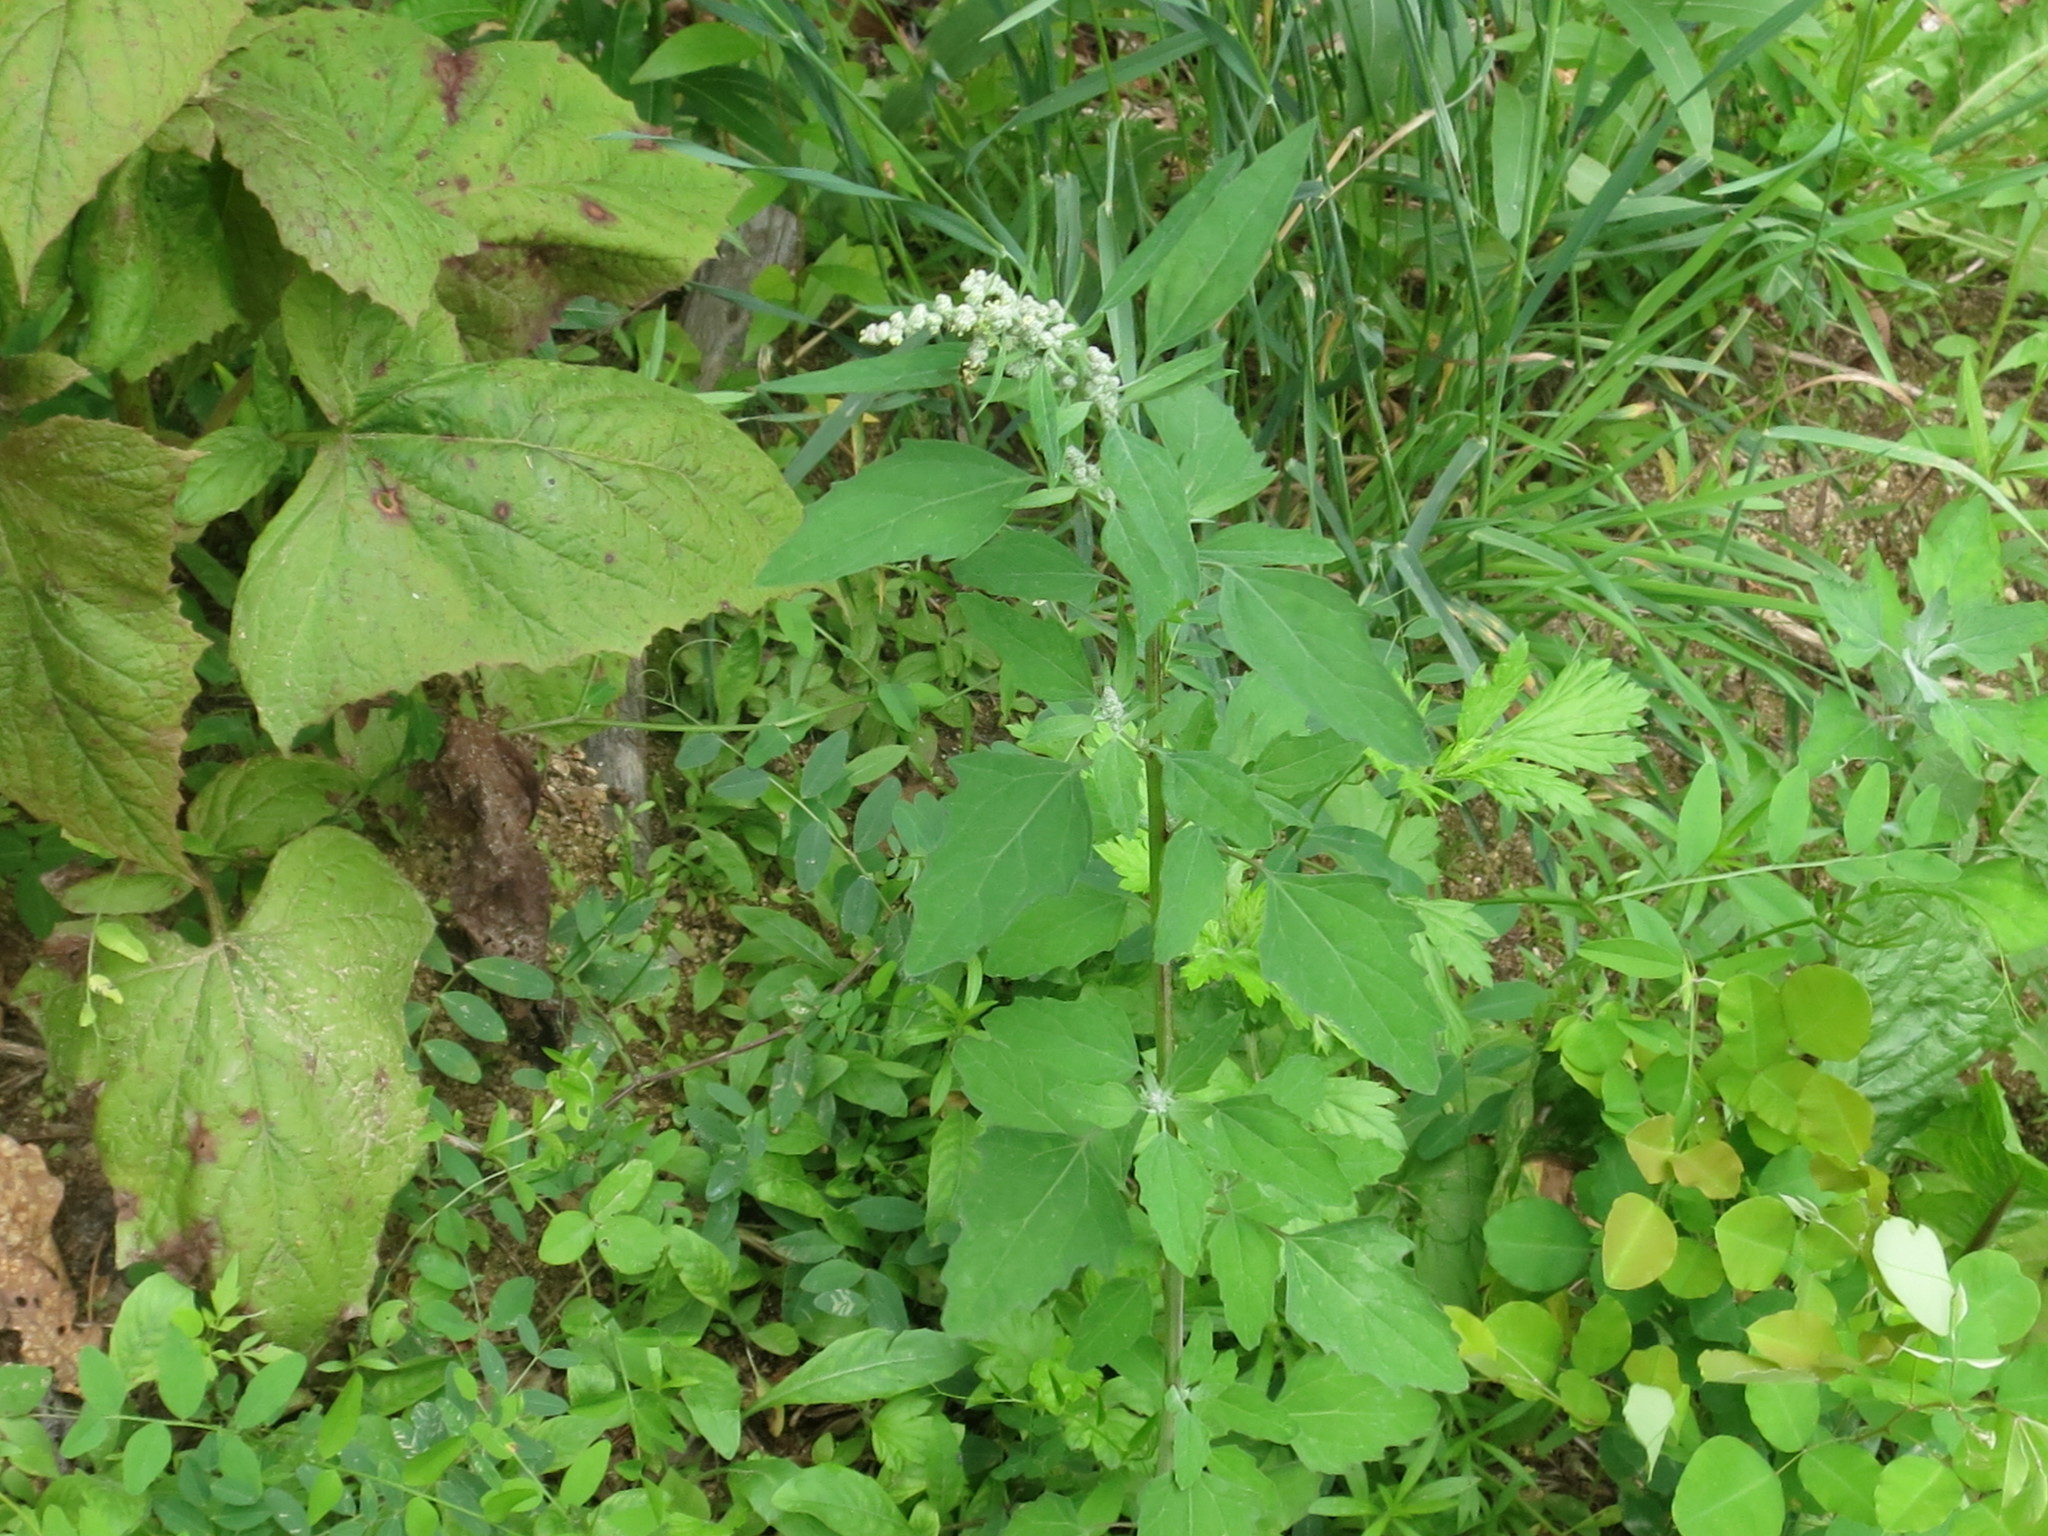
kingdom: Plantae
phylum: Tracheophyta
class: Magnoliopsida
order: Caryophyllales
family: Amaranthaceae
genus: Chenopodium
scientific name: Chenopodium album
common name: Fat-hen
